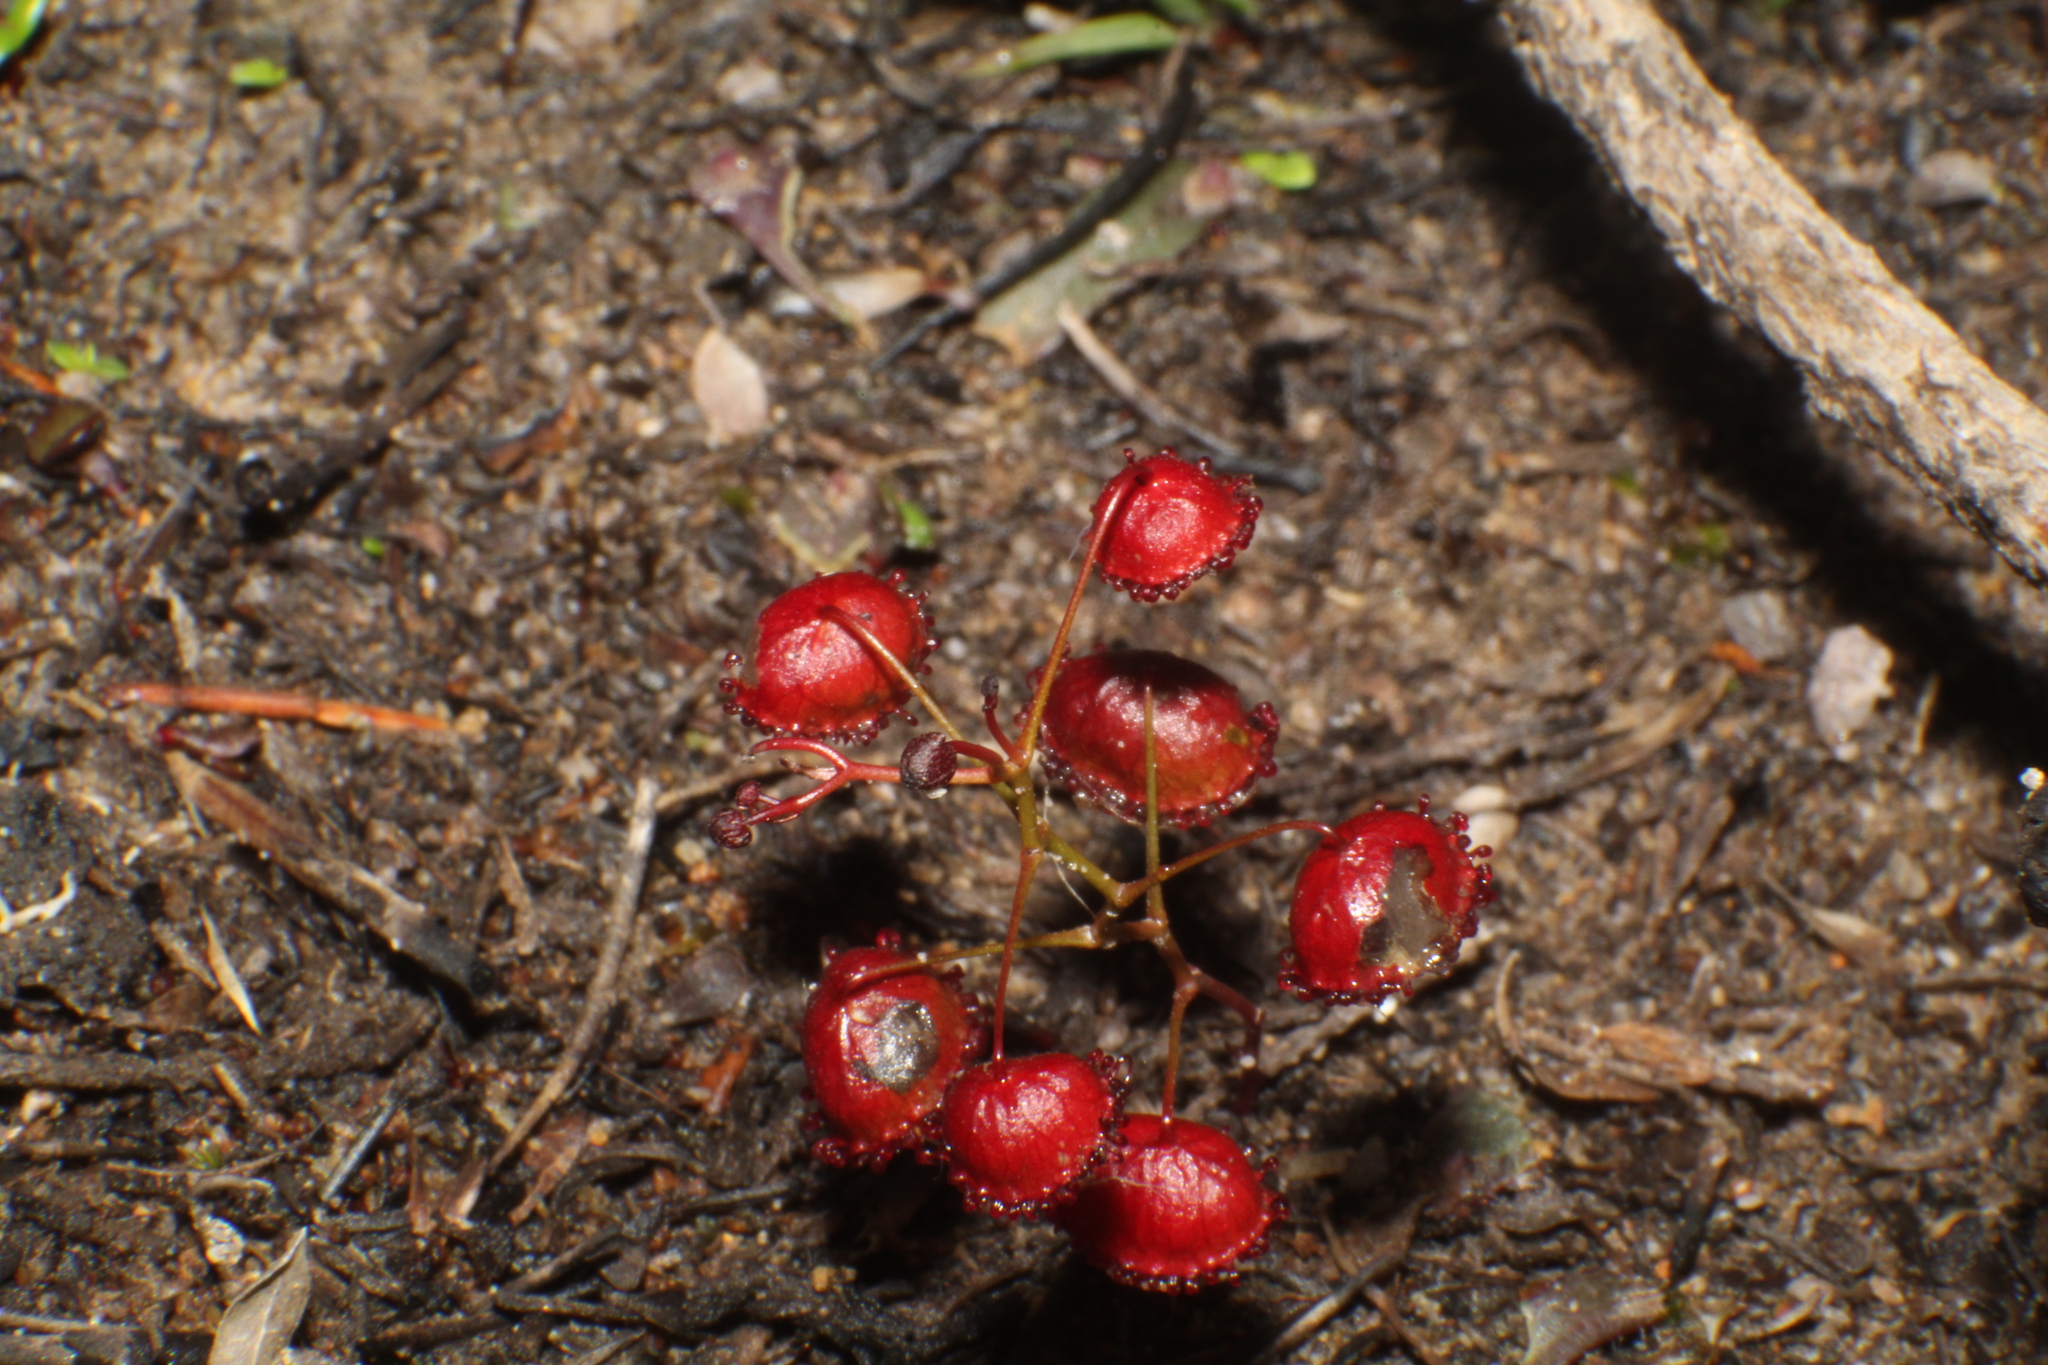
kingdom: Plantae
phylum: Tracheophyta
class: Magnoliopsida
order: Caryophyllales
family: Droseraceae
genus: Drosera
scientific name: Drosera huegelii
